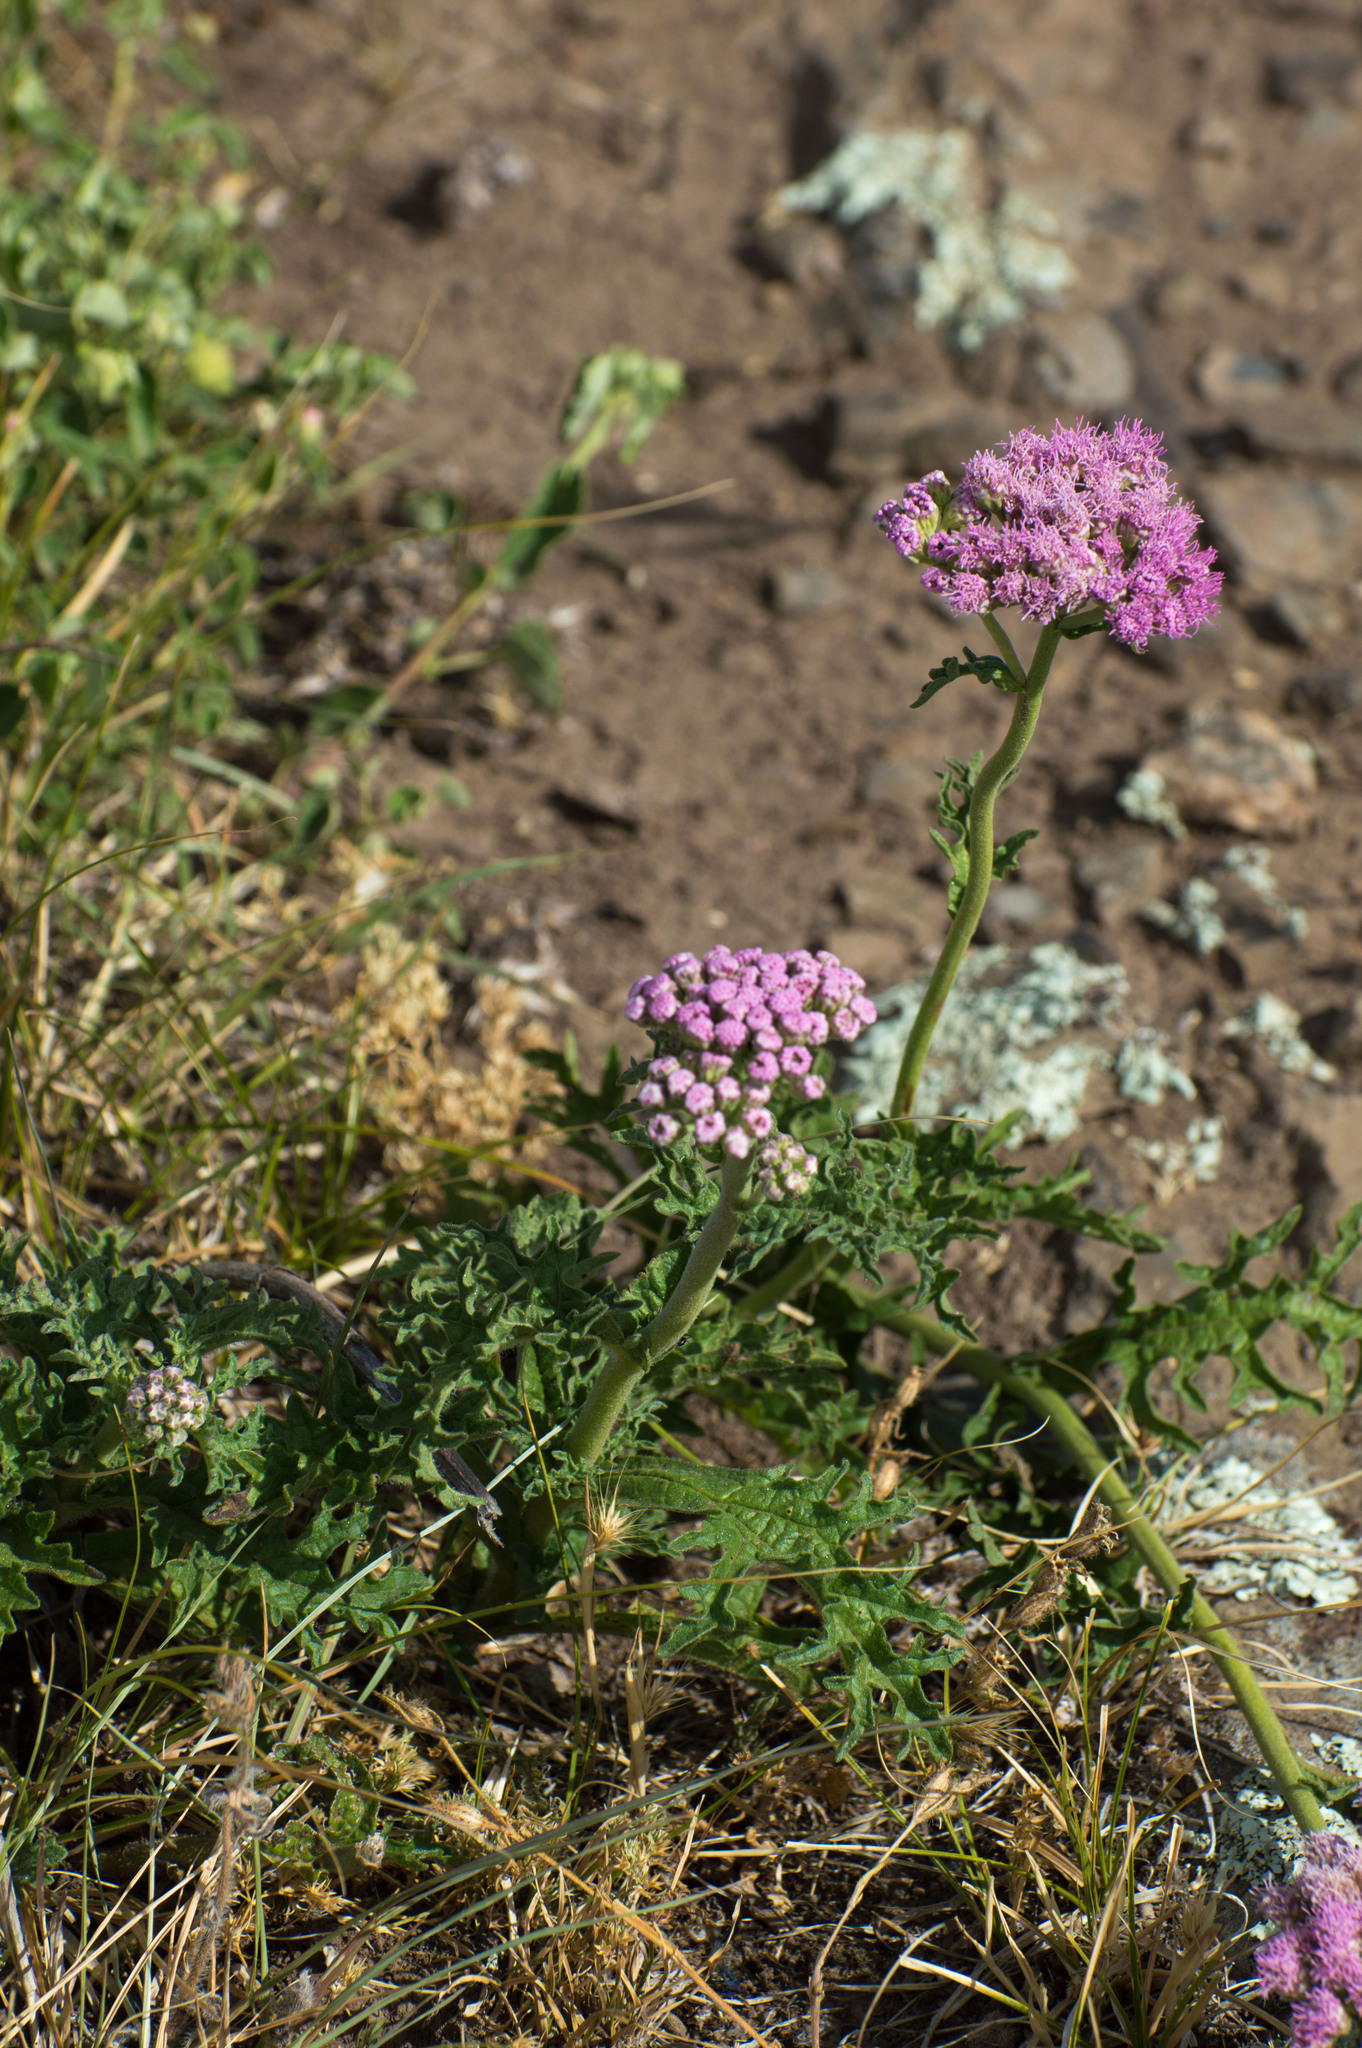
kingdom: Plantae
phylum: Tracheophyta
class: Magnoliopsida
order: Asterales
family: Asteraceae
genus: Gyptis
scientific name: Gyptis tanacetifolia
